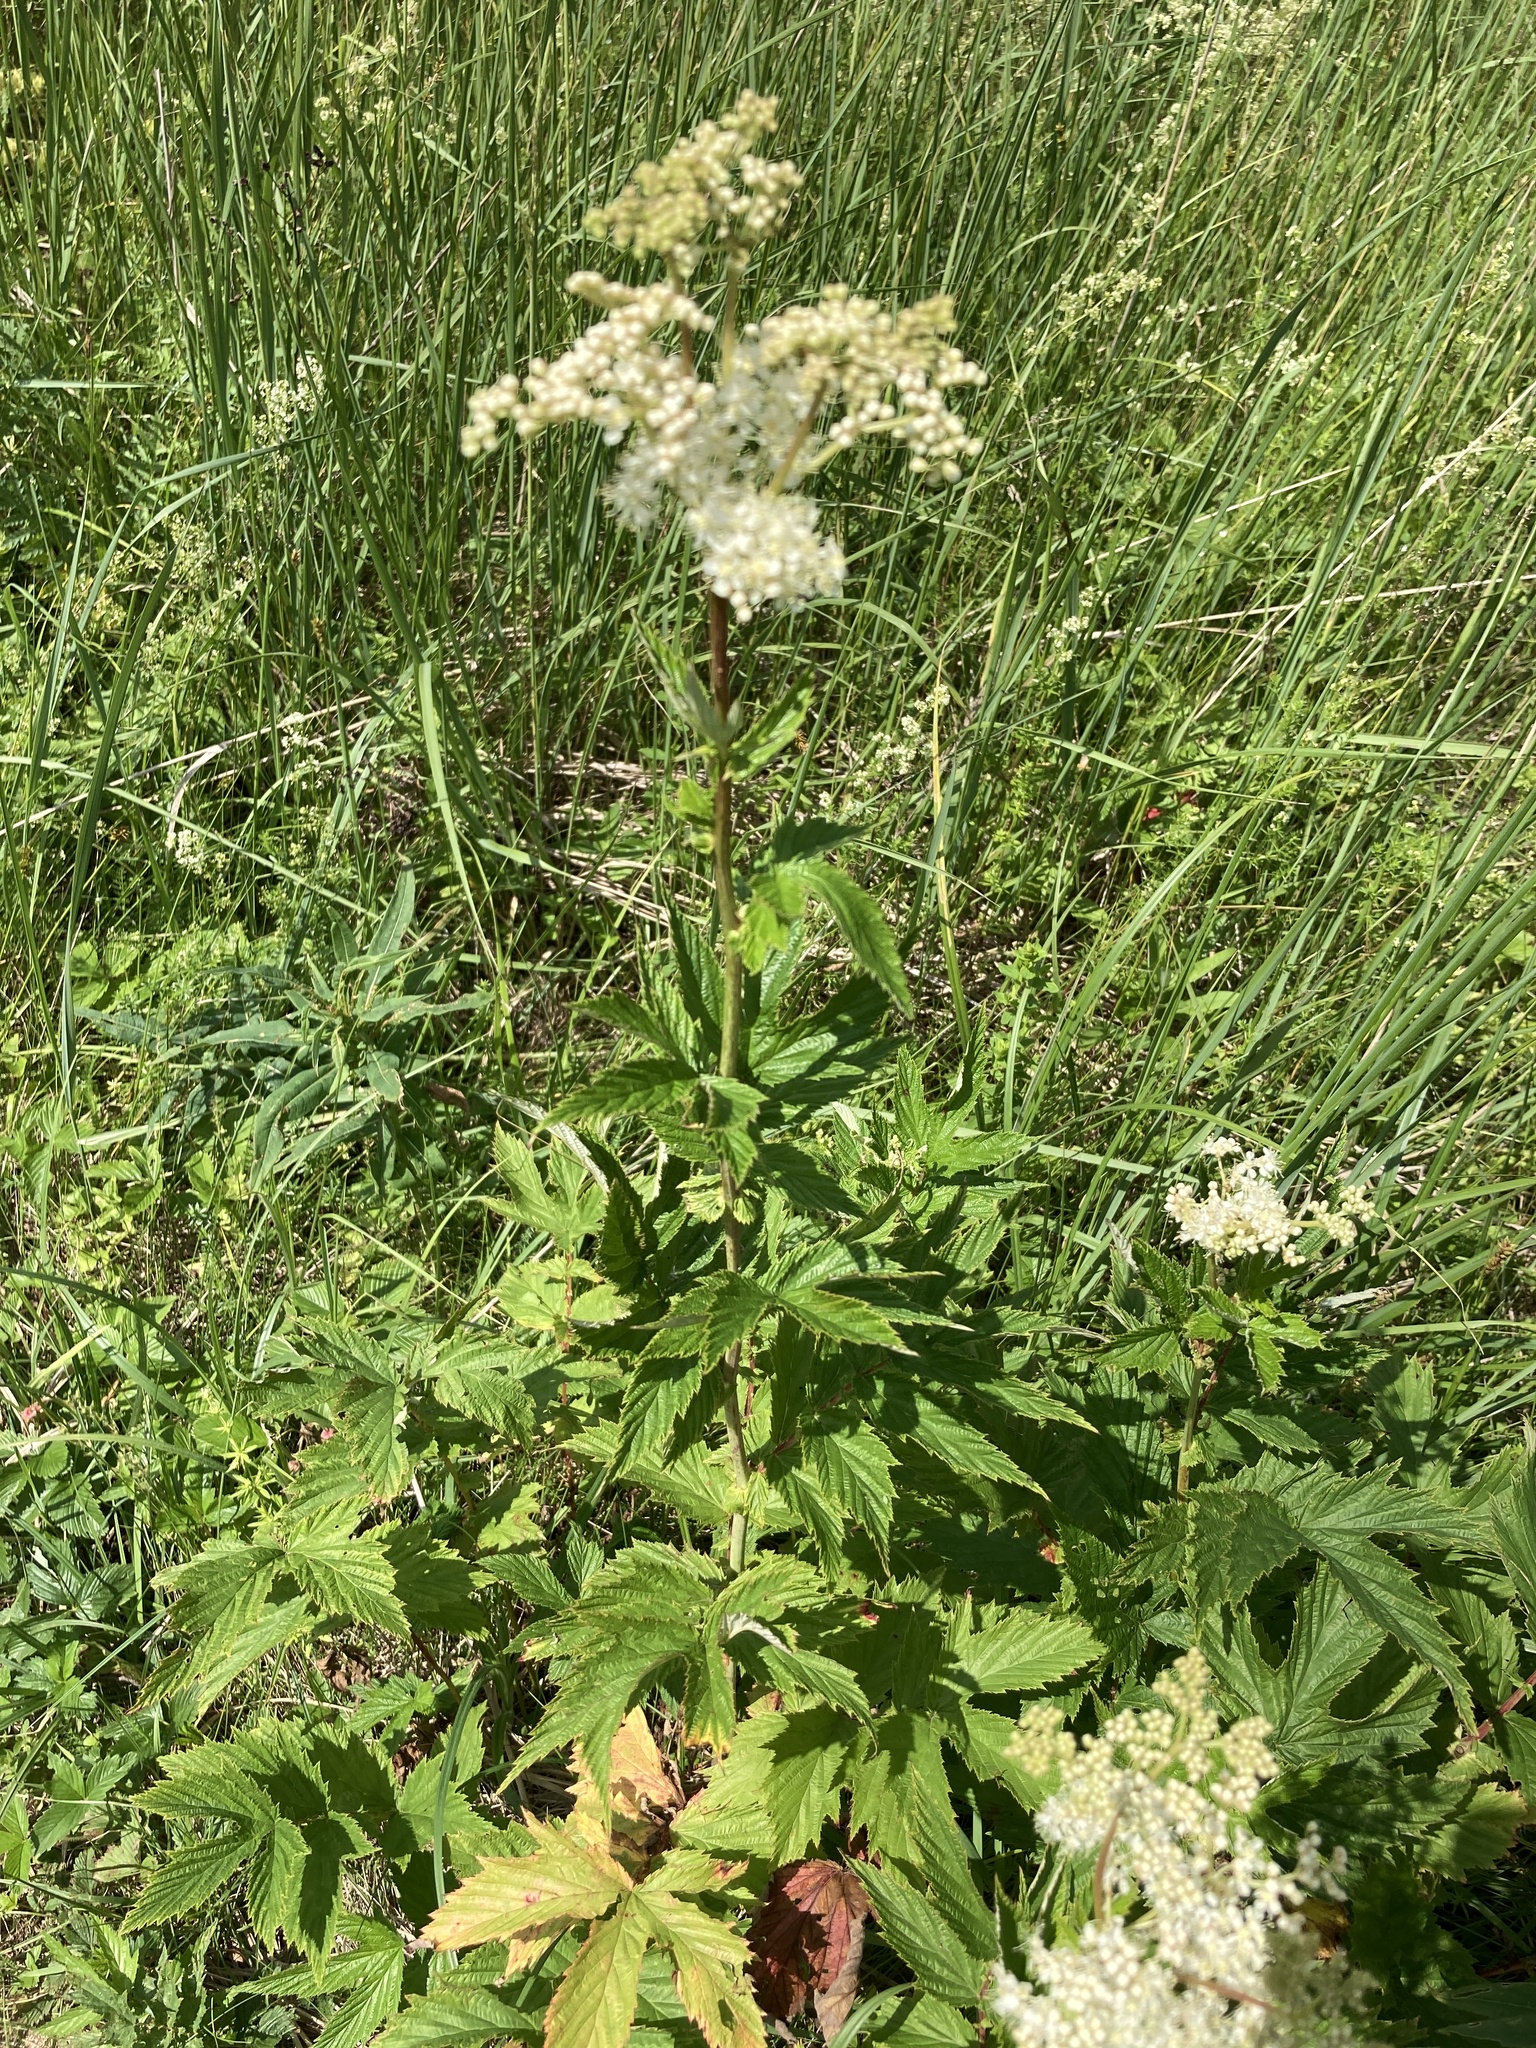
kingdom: Plantae
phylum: Tracheophyta
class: Magnoliopsida
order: Rosales
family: Rosaceae
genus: Filipendula
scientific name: Filipendula ulmaria
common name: Meadowsweet
